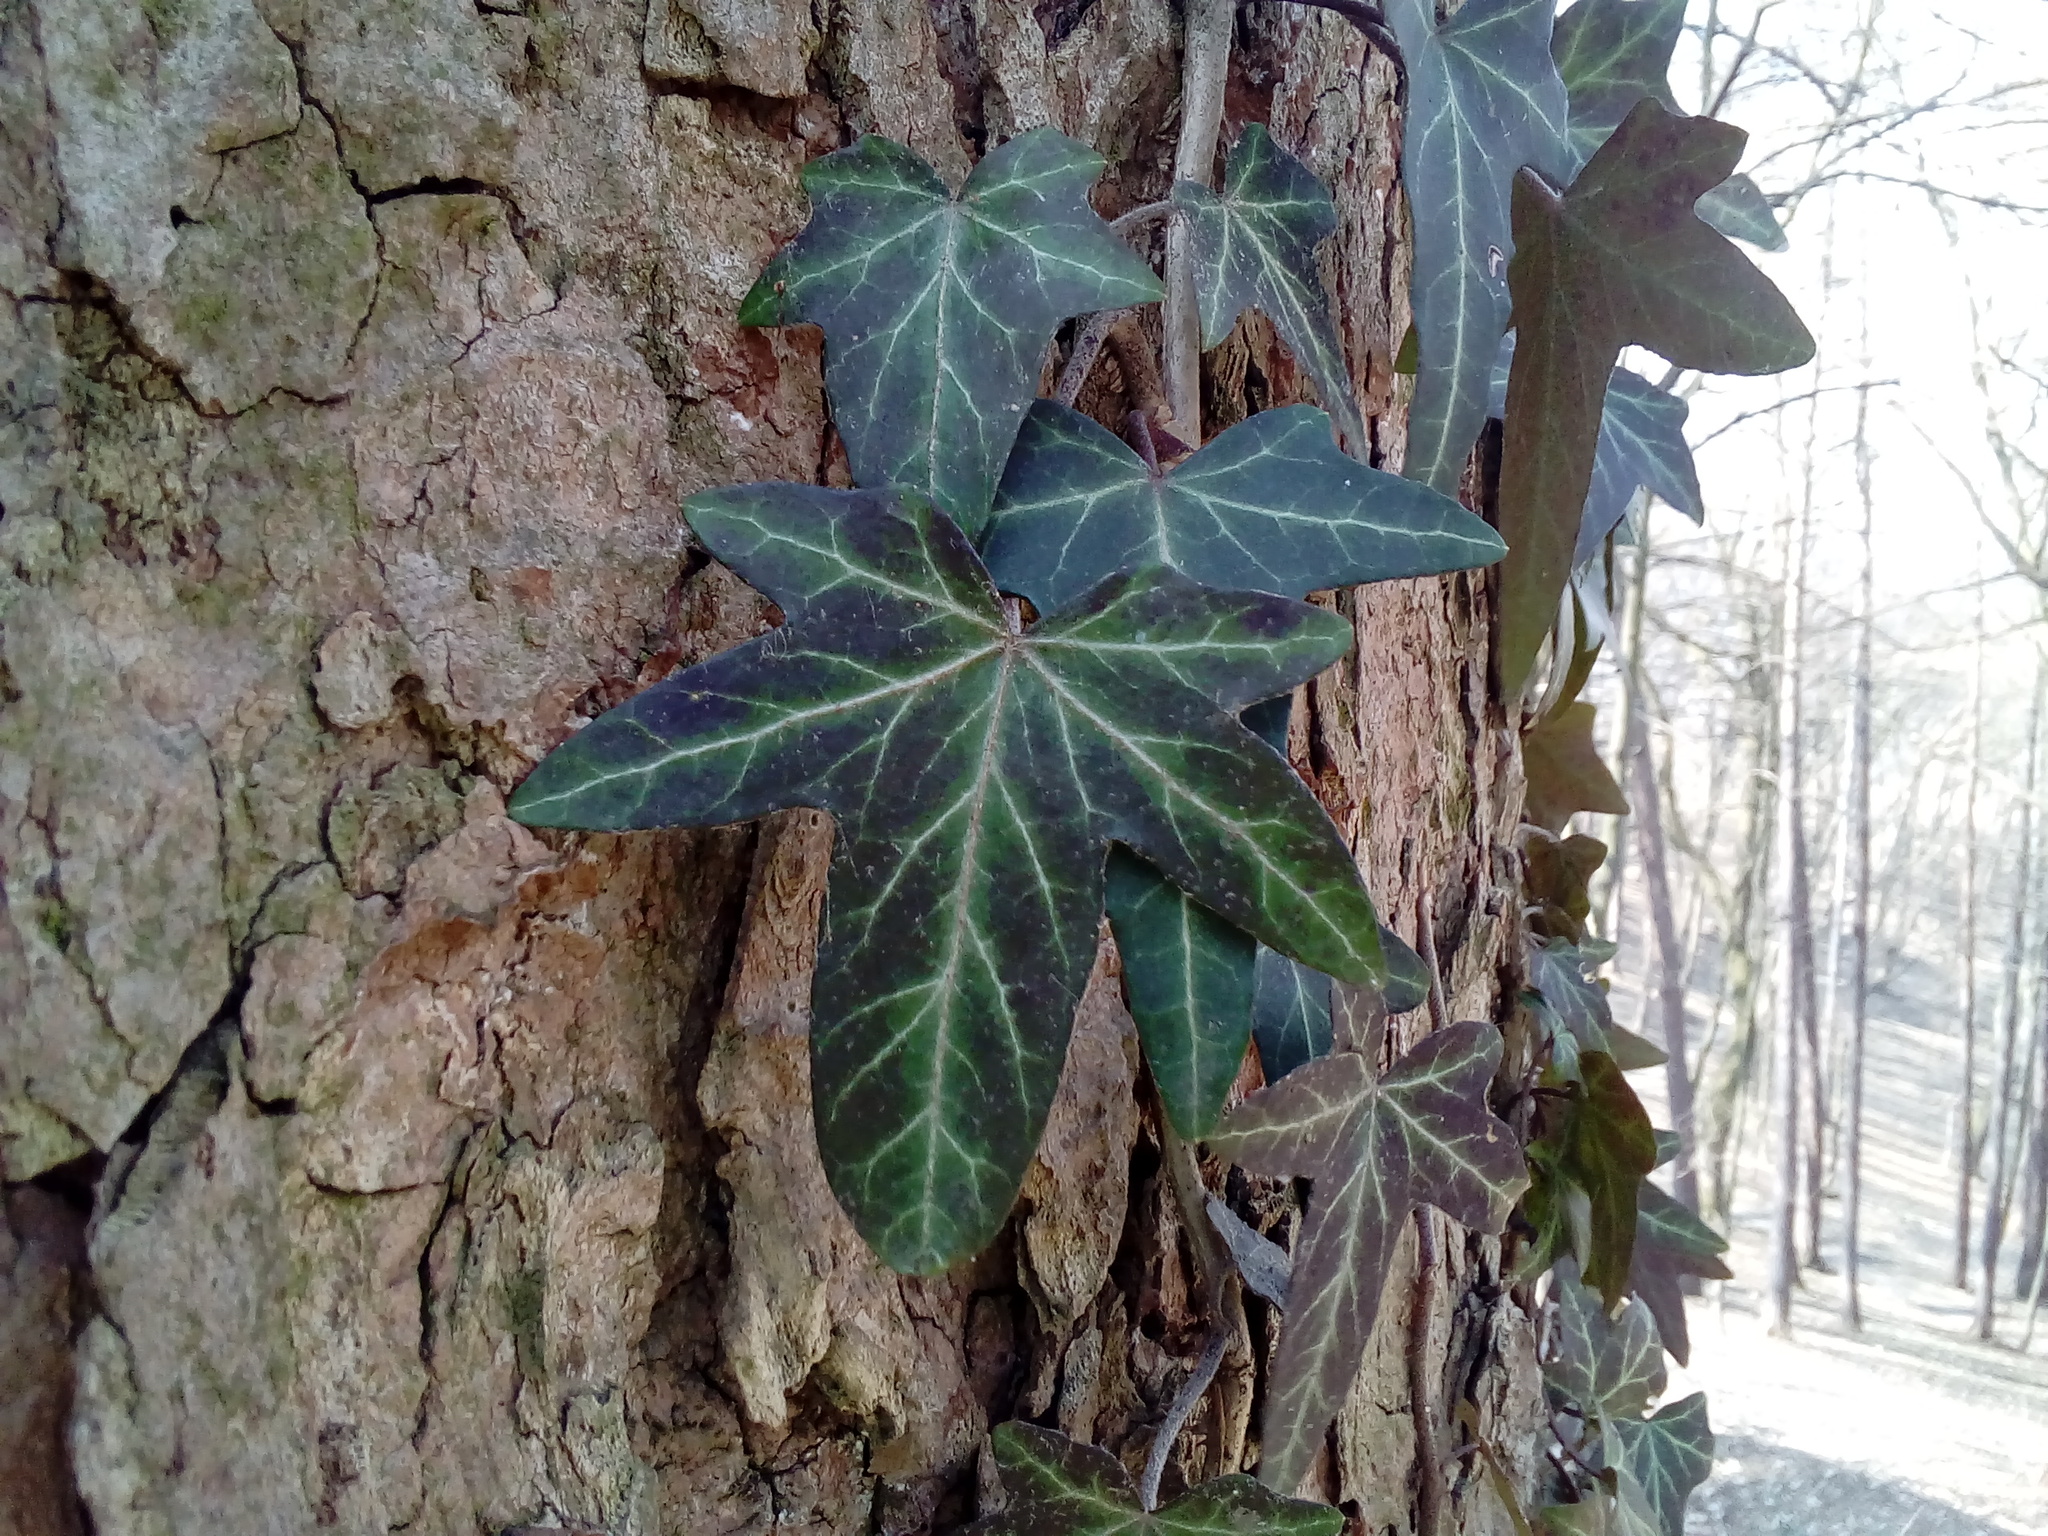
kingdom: Plantae
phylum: Tracheophyta
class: Magnoliopsida
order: Apiales
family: Araliaceae
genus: Hedera
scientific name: Hedera helix
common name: Ivy
